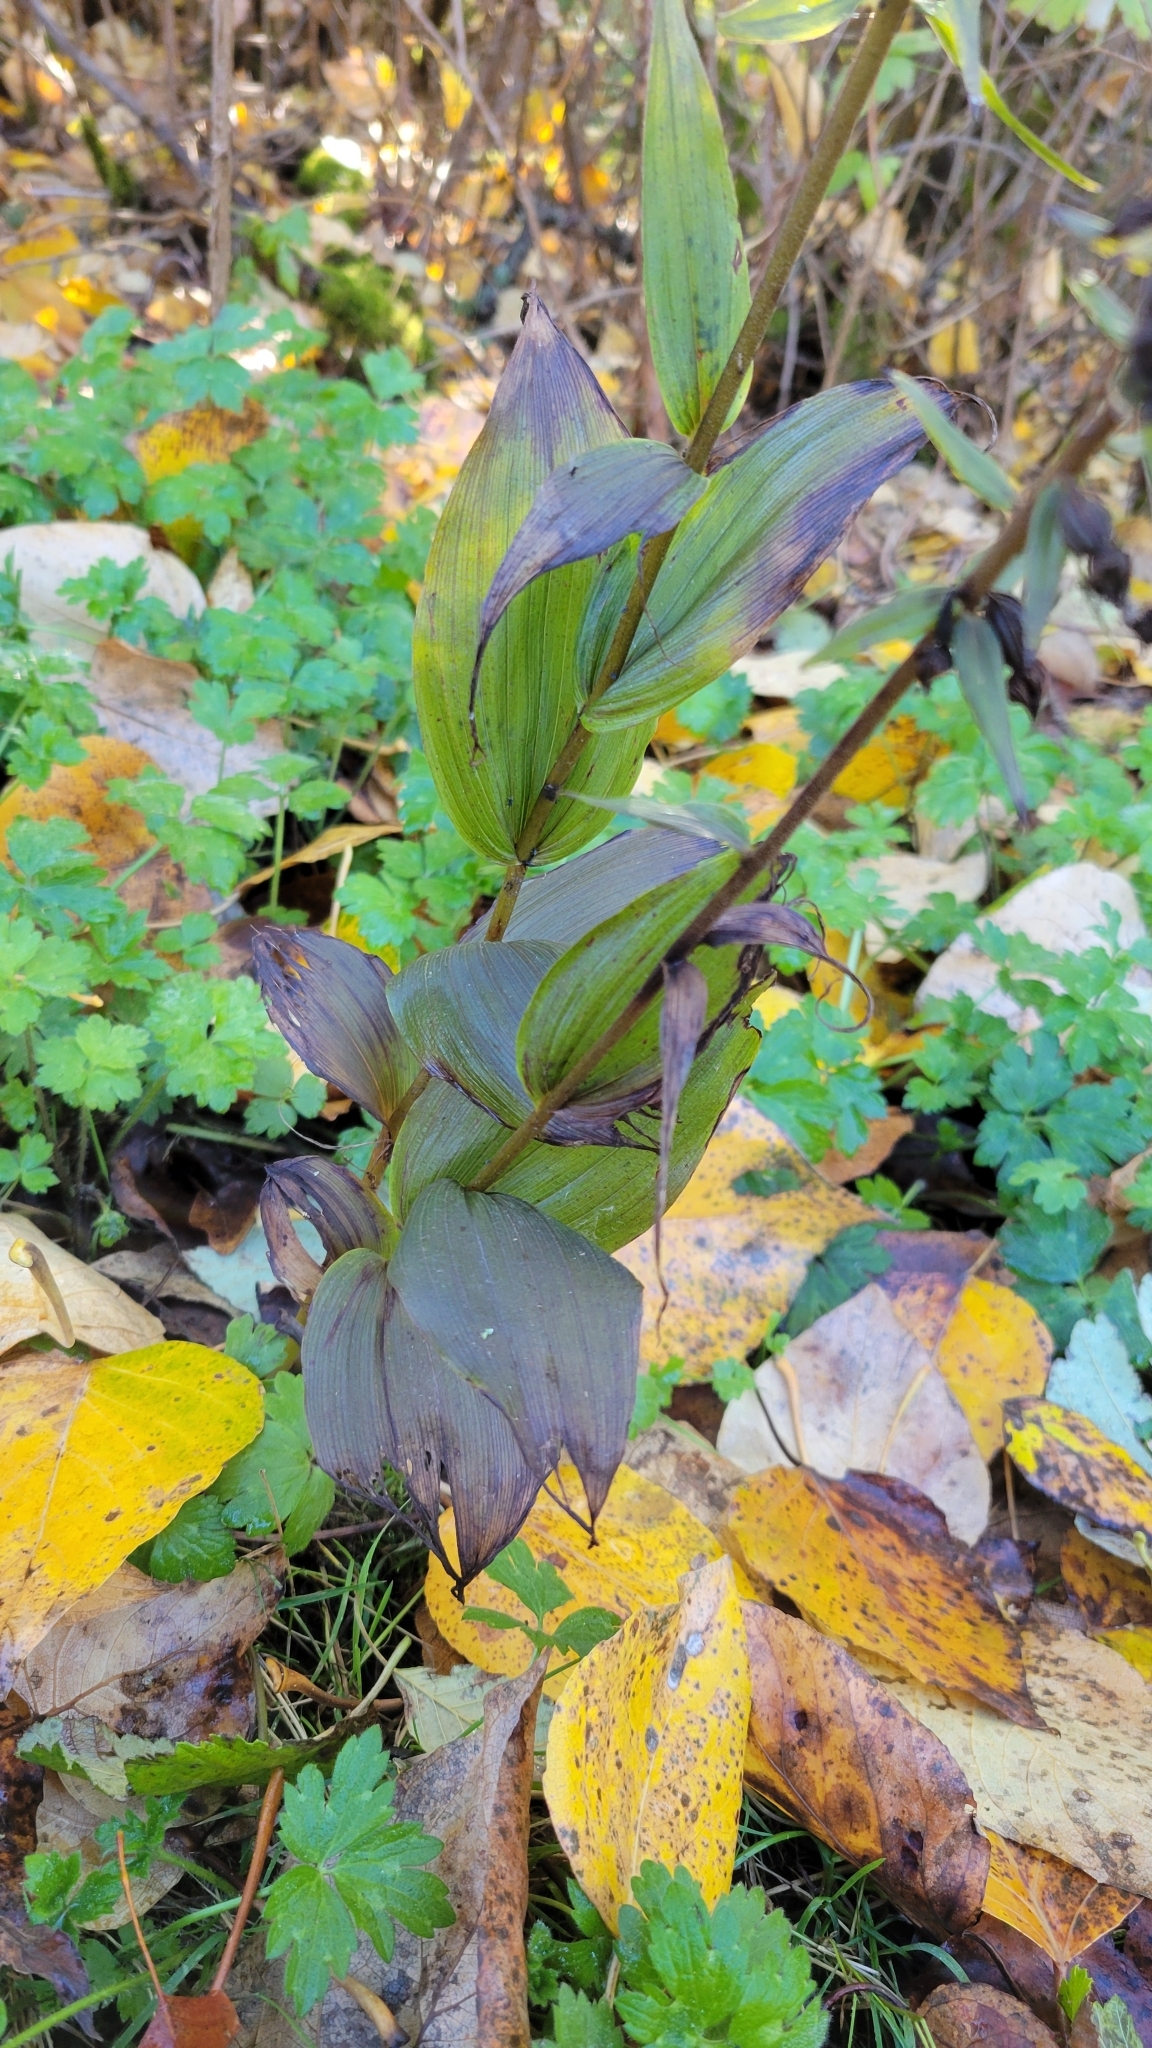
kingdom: Plantae
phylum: Tracheophyta
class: Liliopsida
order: Asparagales
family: Orchidaceae
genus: Epipactis
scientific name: Epipactis helleborine
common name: Broad-leaved helleborine
